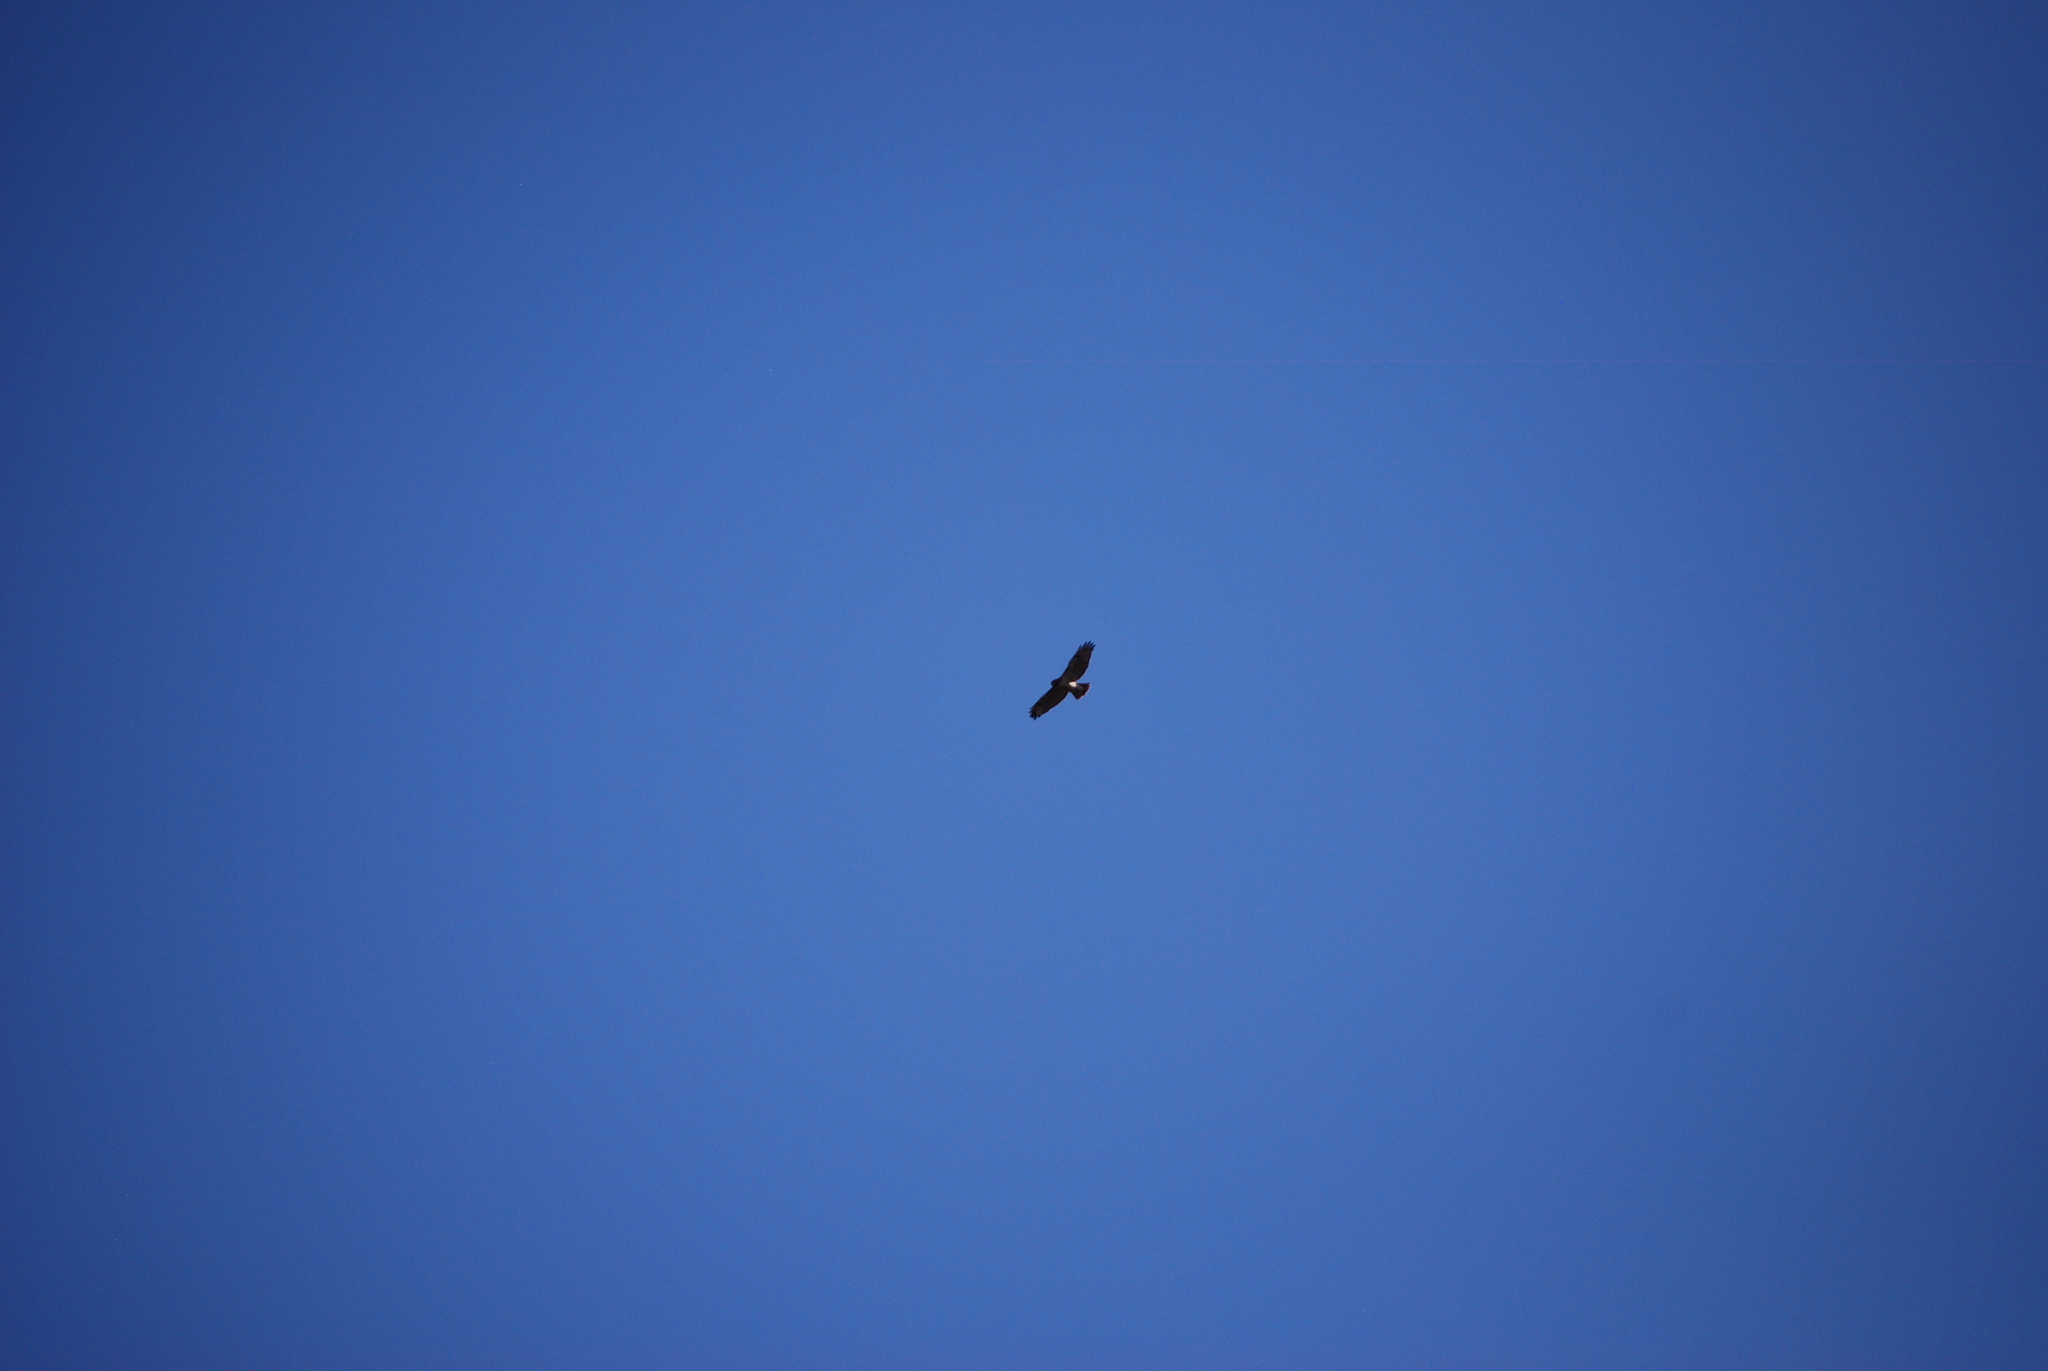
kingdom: Animalia
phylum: Chordata
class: Aves
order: Accipitriformes
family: Accipitridae
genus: Buteo
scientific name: Buteo jamaicensis
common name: Red-tailed hawk
